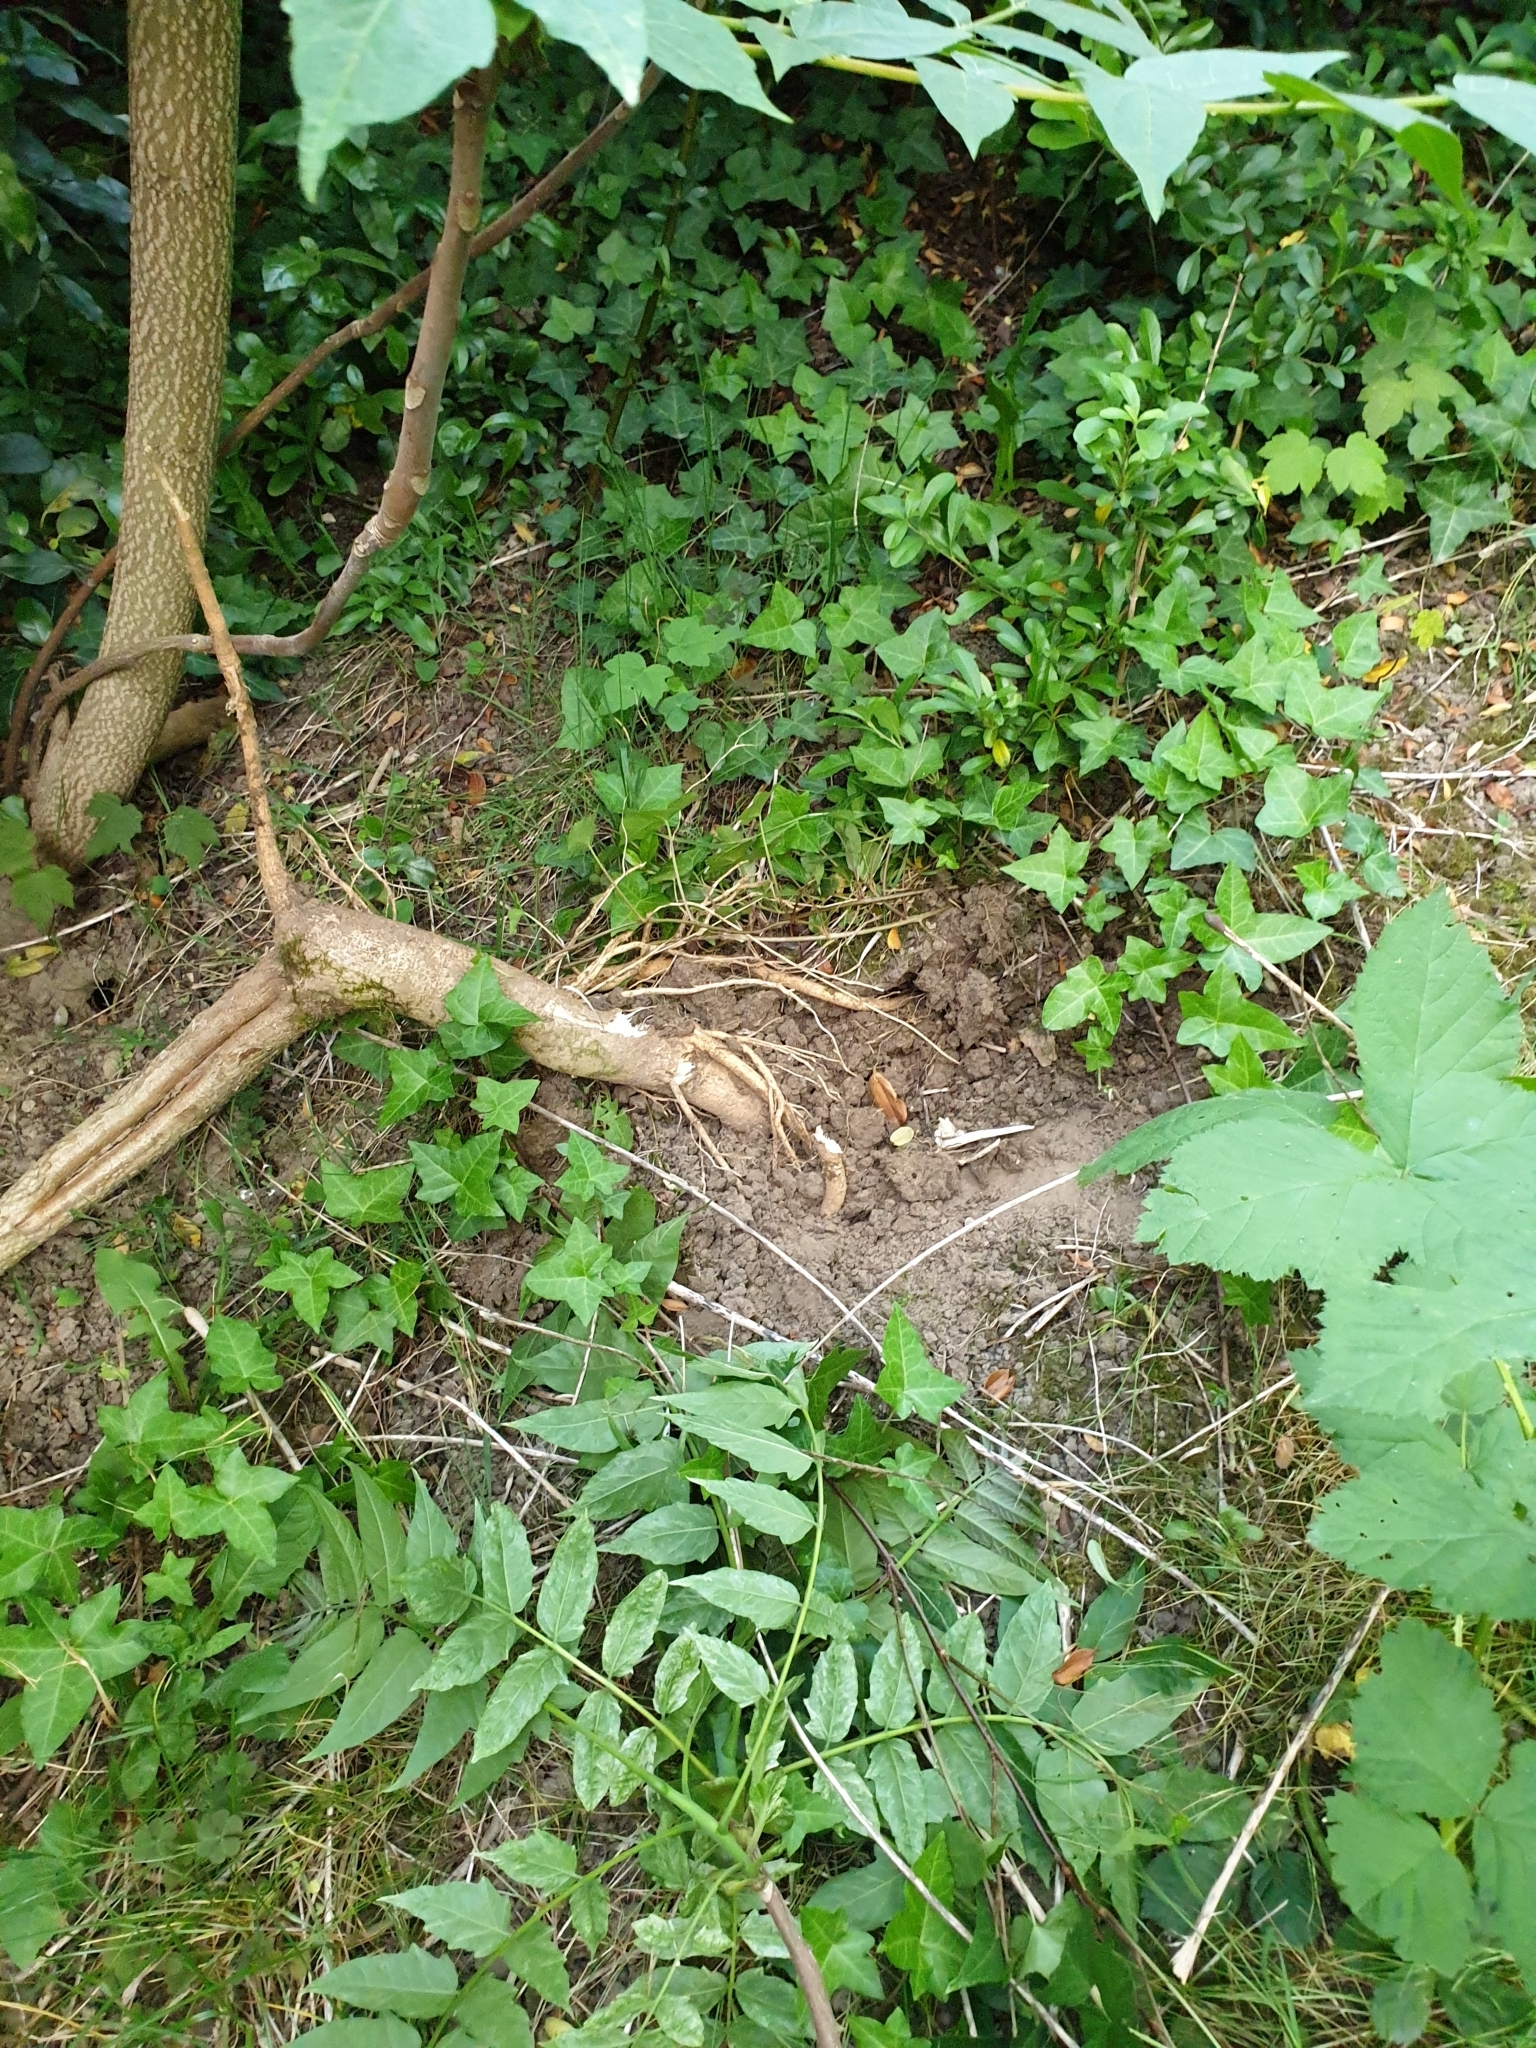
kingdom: Plantae
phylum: Tracheophyta
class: Magnoliopsida
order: Sapindales
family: Simaroubaceae
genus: Ailanthus
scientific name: Ailanthus altissima
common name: Tree-of-heaven
